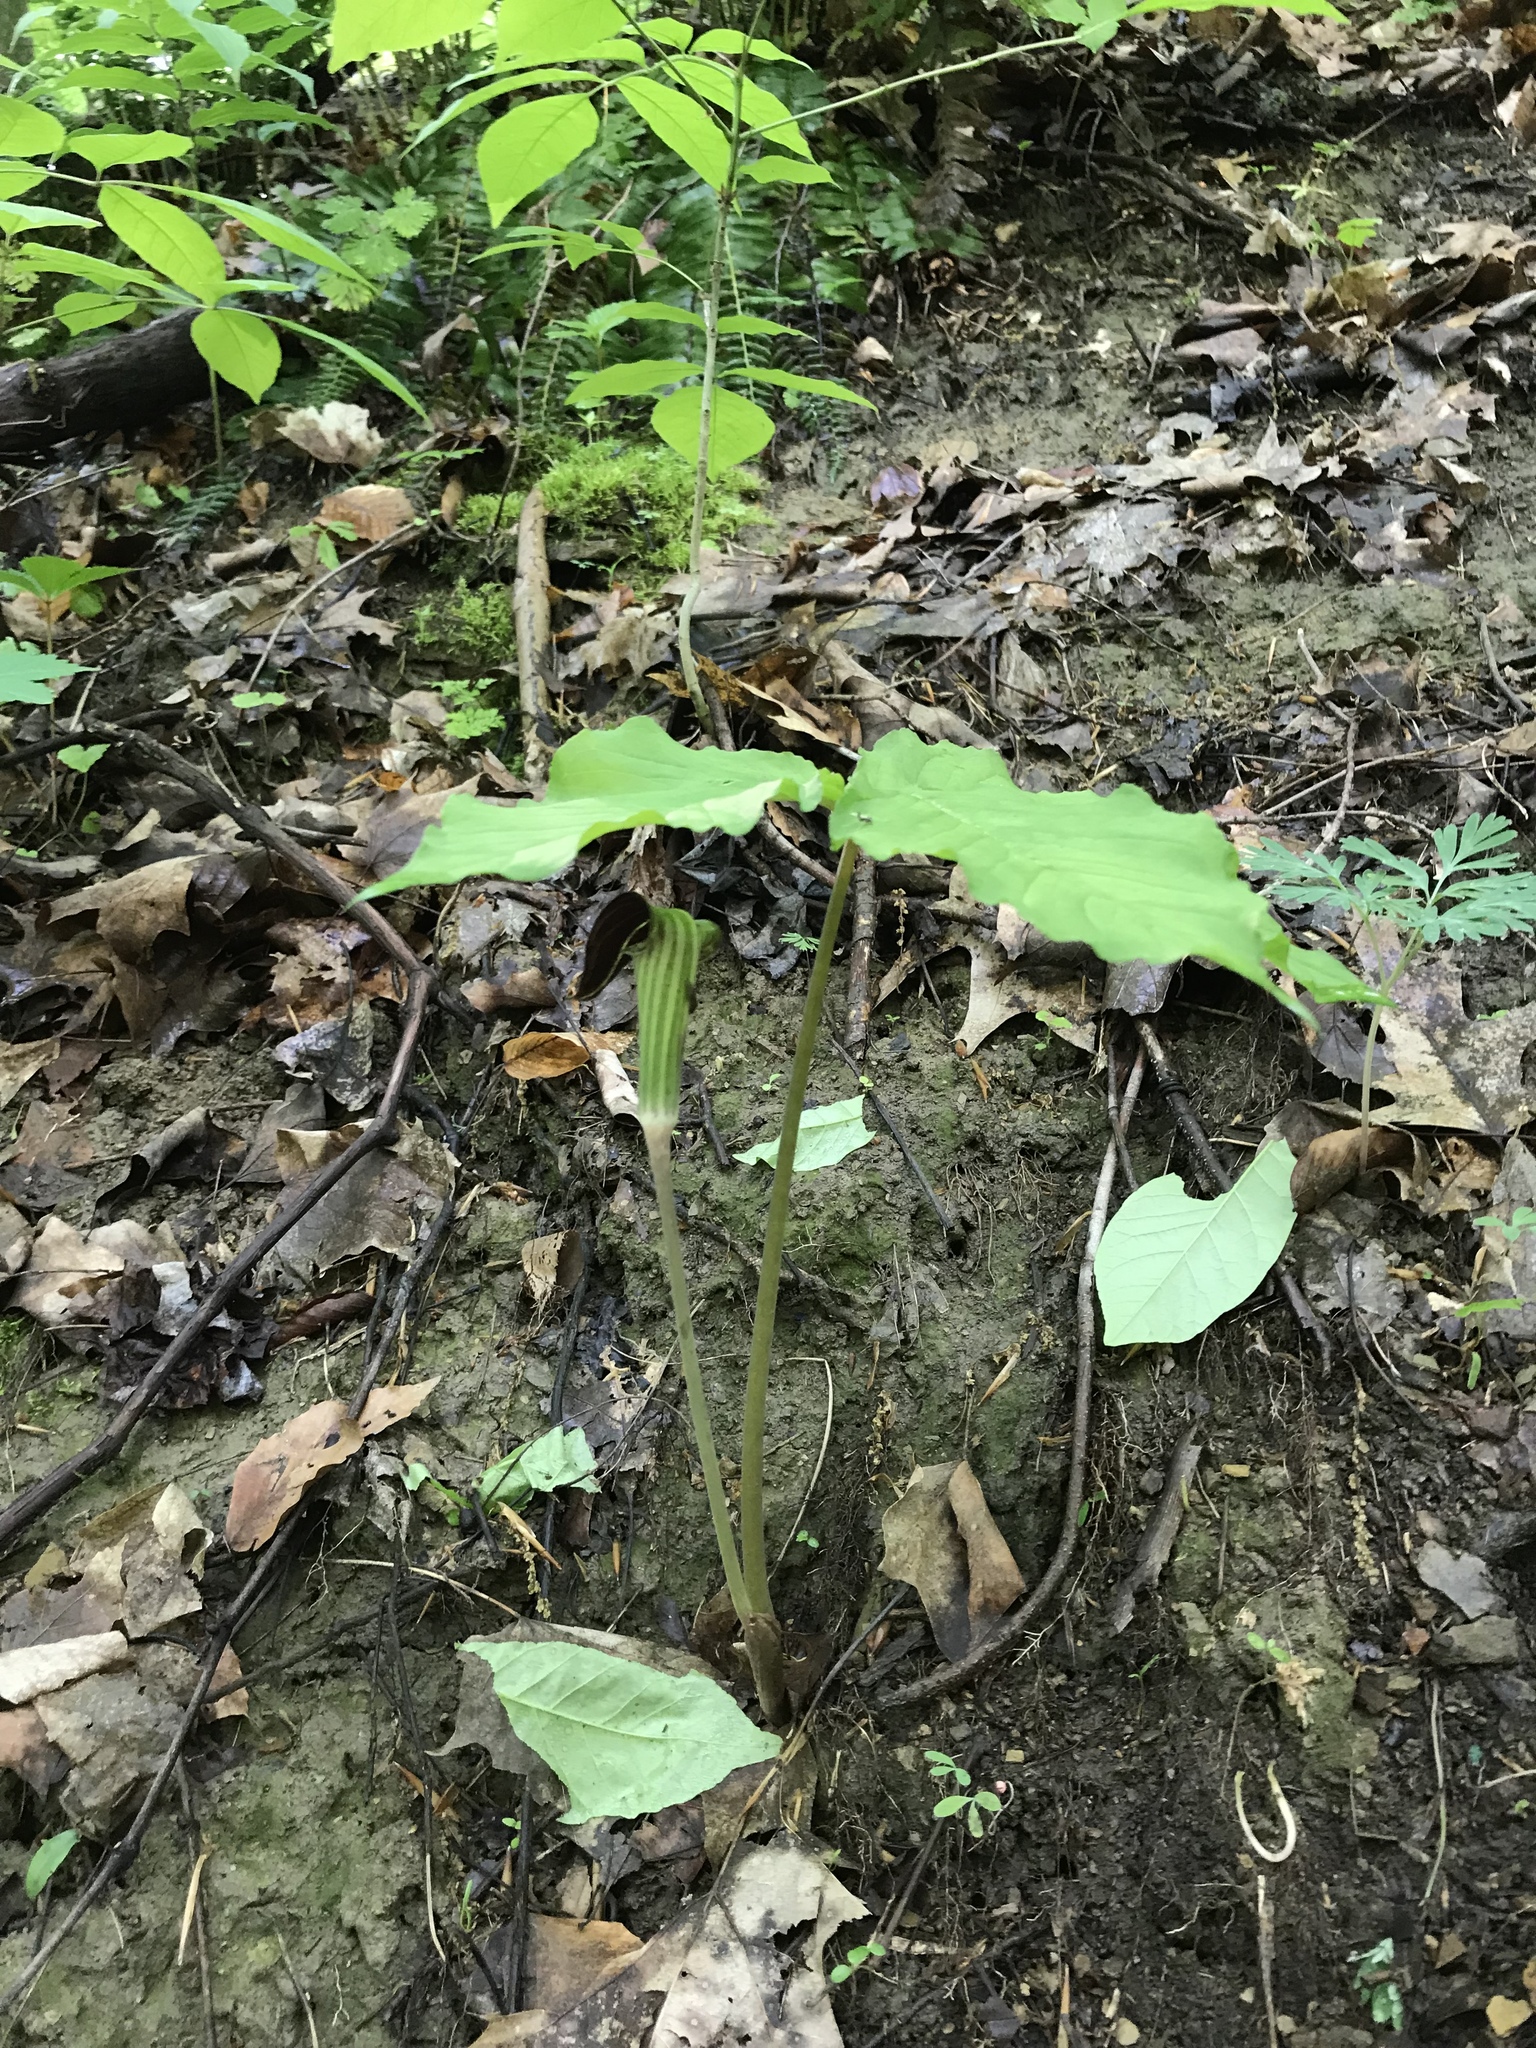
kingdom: Plantae
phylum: Tracheophyta
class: Liliopsida
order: Alismatales
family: Araceae
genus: Arisaema
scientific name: Arisaema triphyllum
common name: Jack-in-the-pulpit
